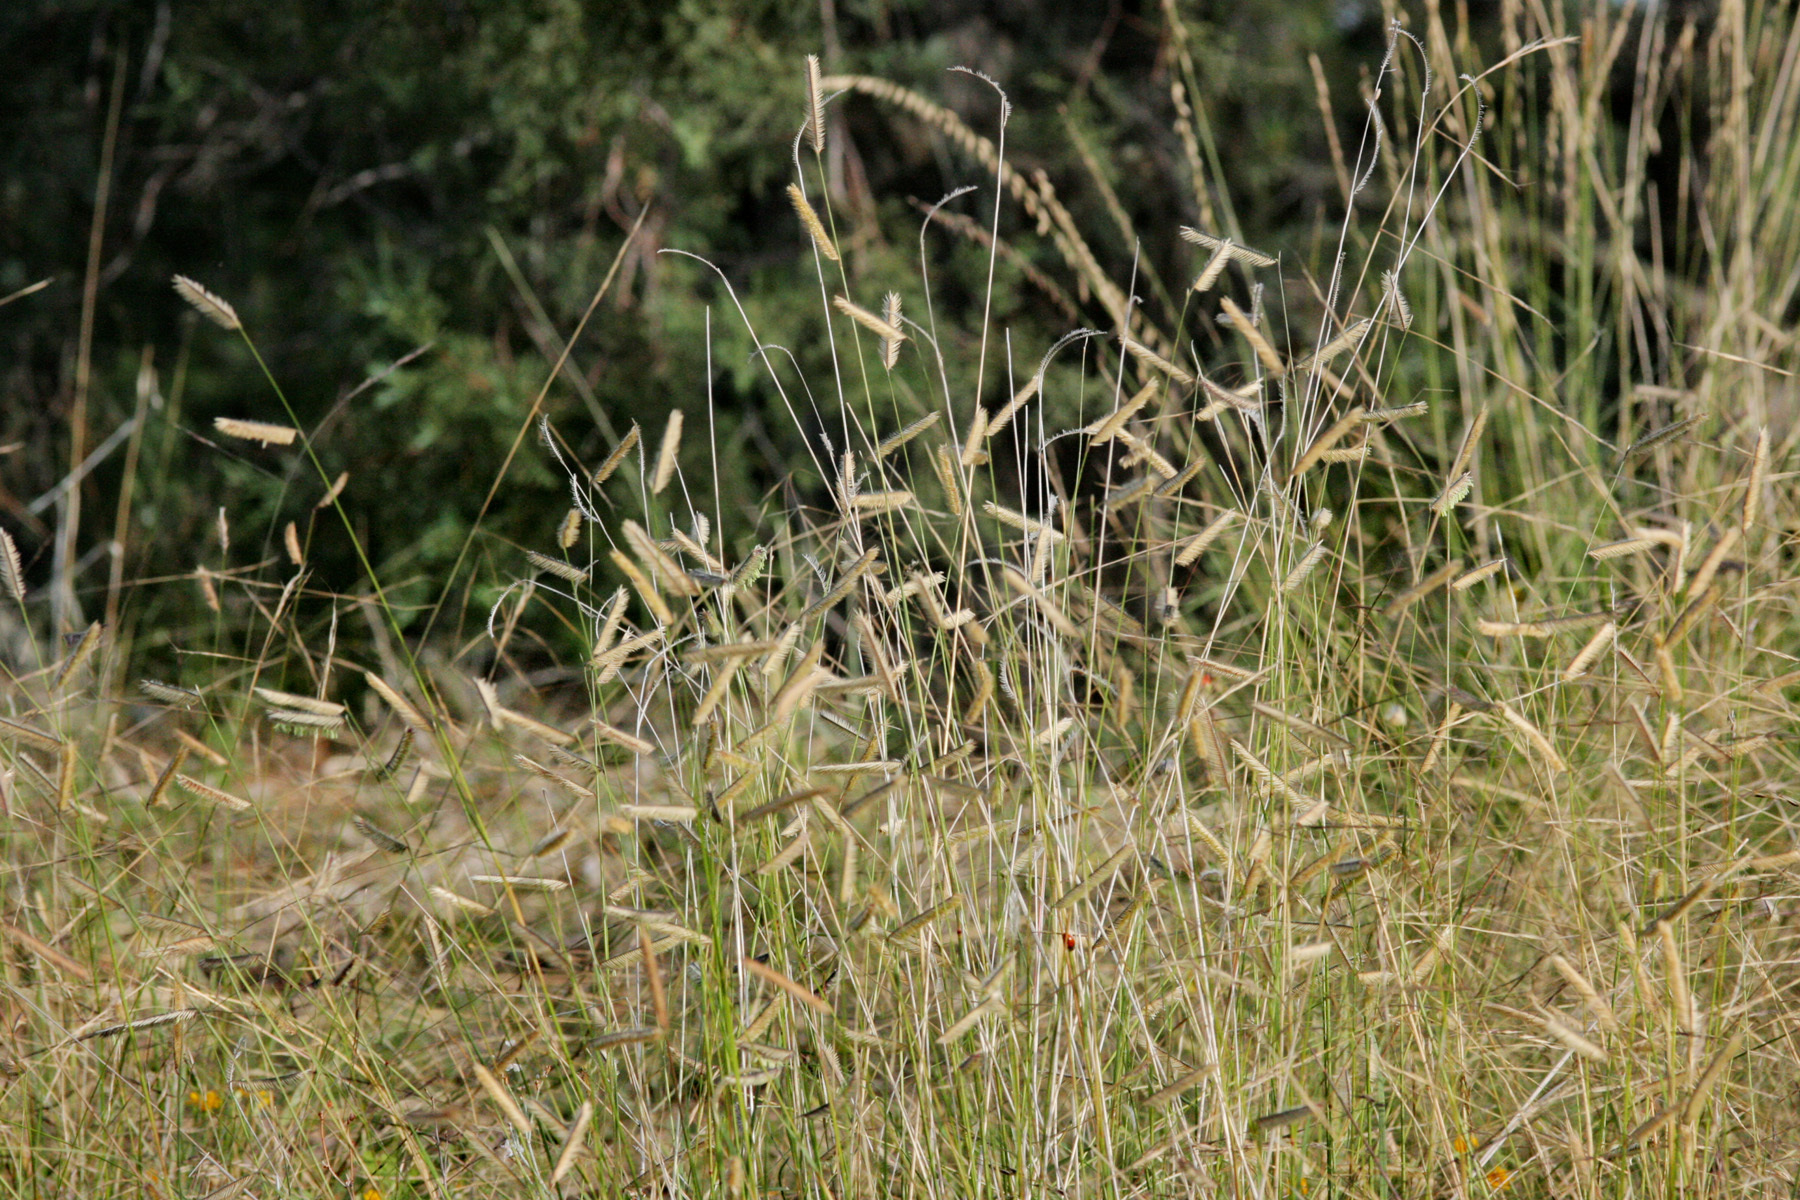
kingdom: Plantae
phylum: Tracheophyta
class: Liliopsida
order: Poales
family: Poaceae
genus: Bouteloua
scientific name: Bouteloua gracilis
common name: Blue grama
